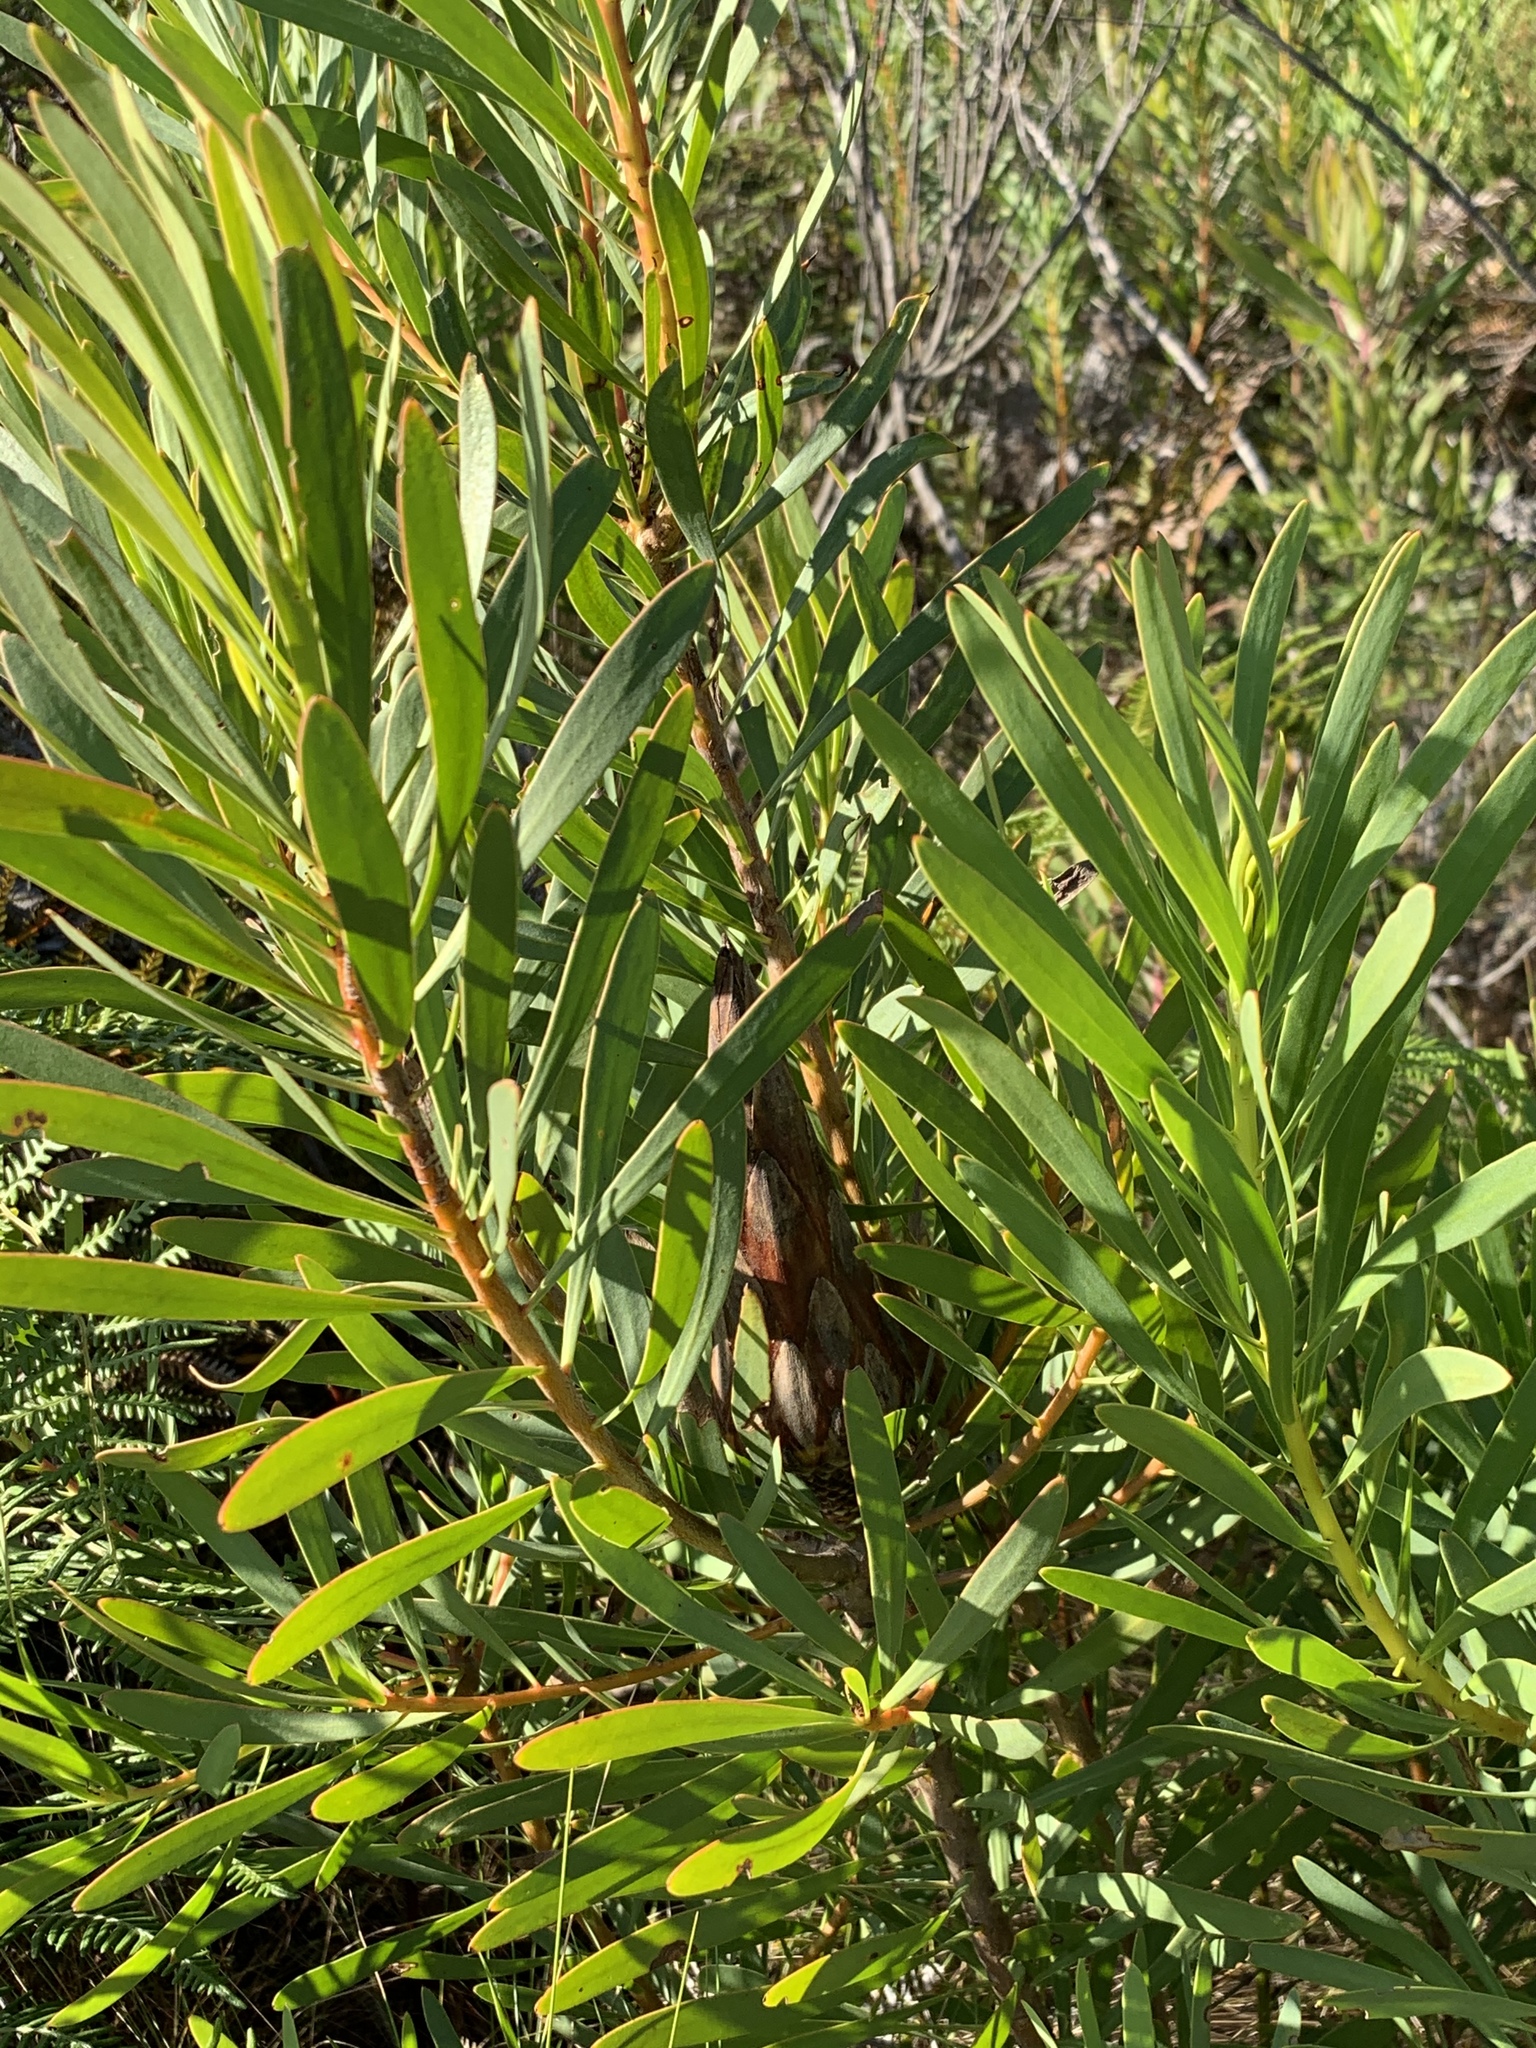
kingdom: Plantae
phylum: Tracheophyta
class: Magnoliopsida
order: Proteales
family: Proteaceae
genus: Protea
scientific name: Protea repens
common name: Sugarbush
